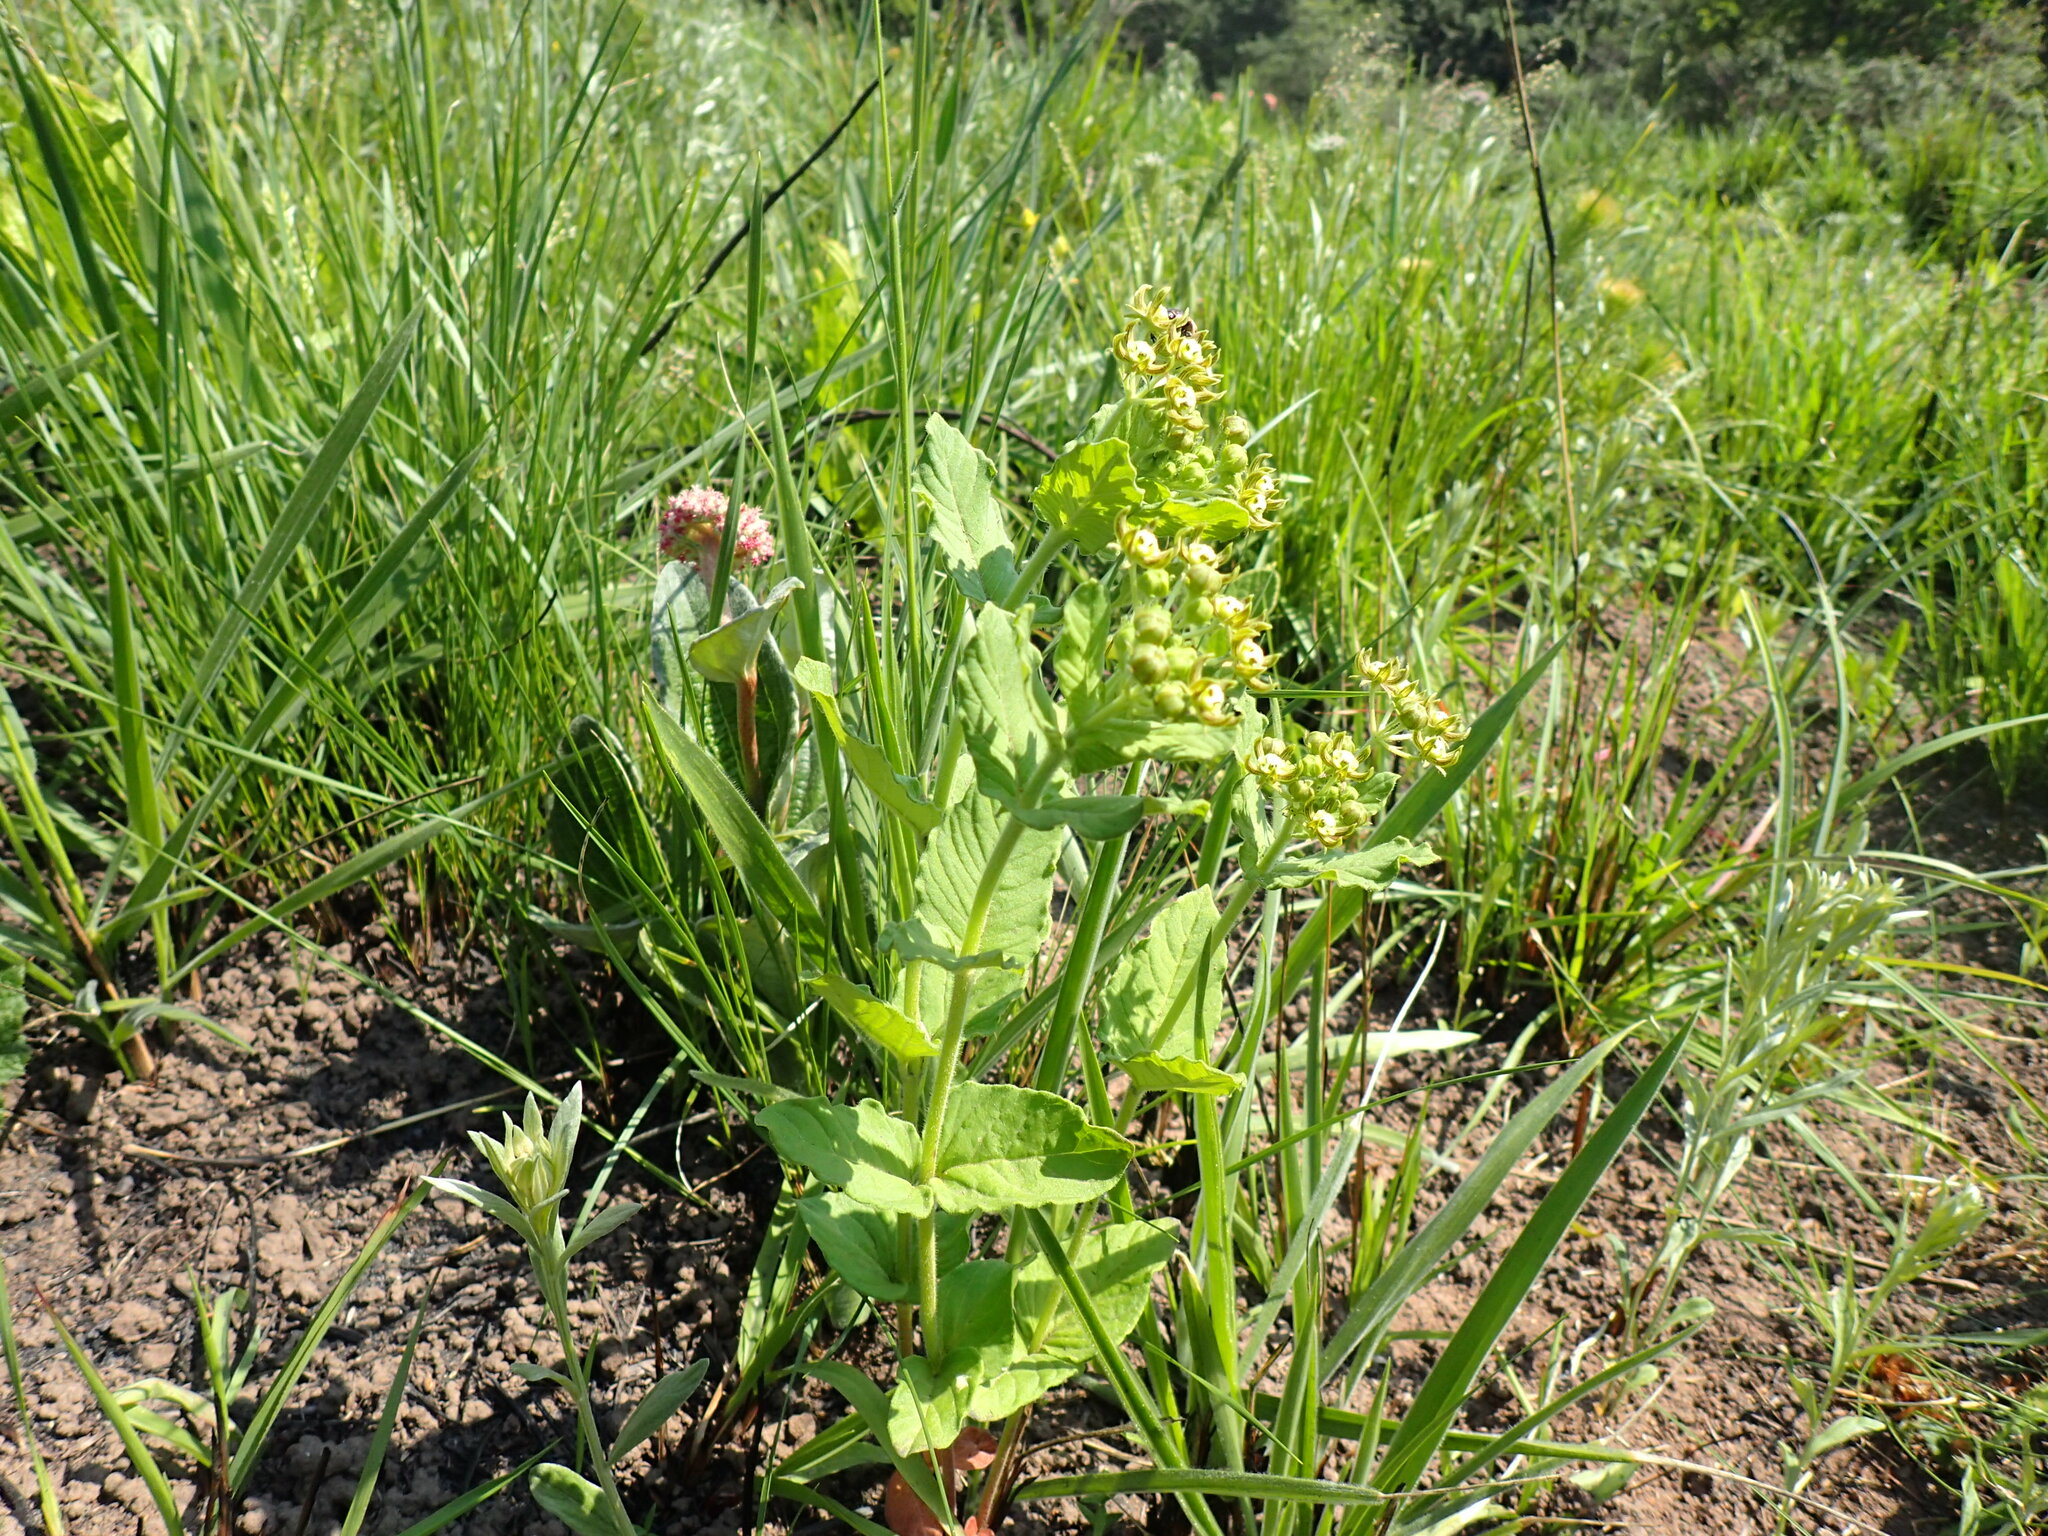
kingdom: Plantae
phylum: Tracheophyta
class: Magnoliopsida
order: Gentianales
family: Apocynaceae
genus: Schizoglossum
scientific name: Schizoglossum cordifolium
